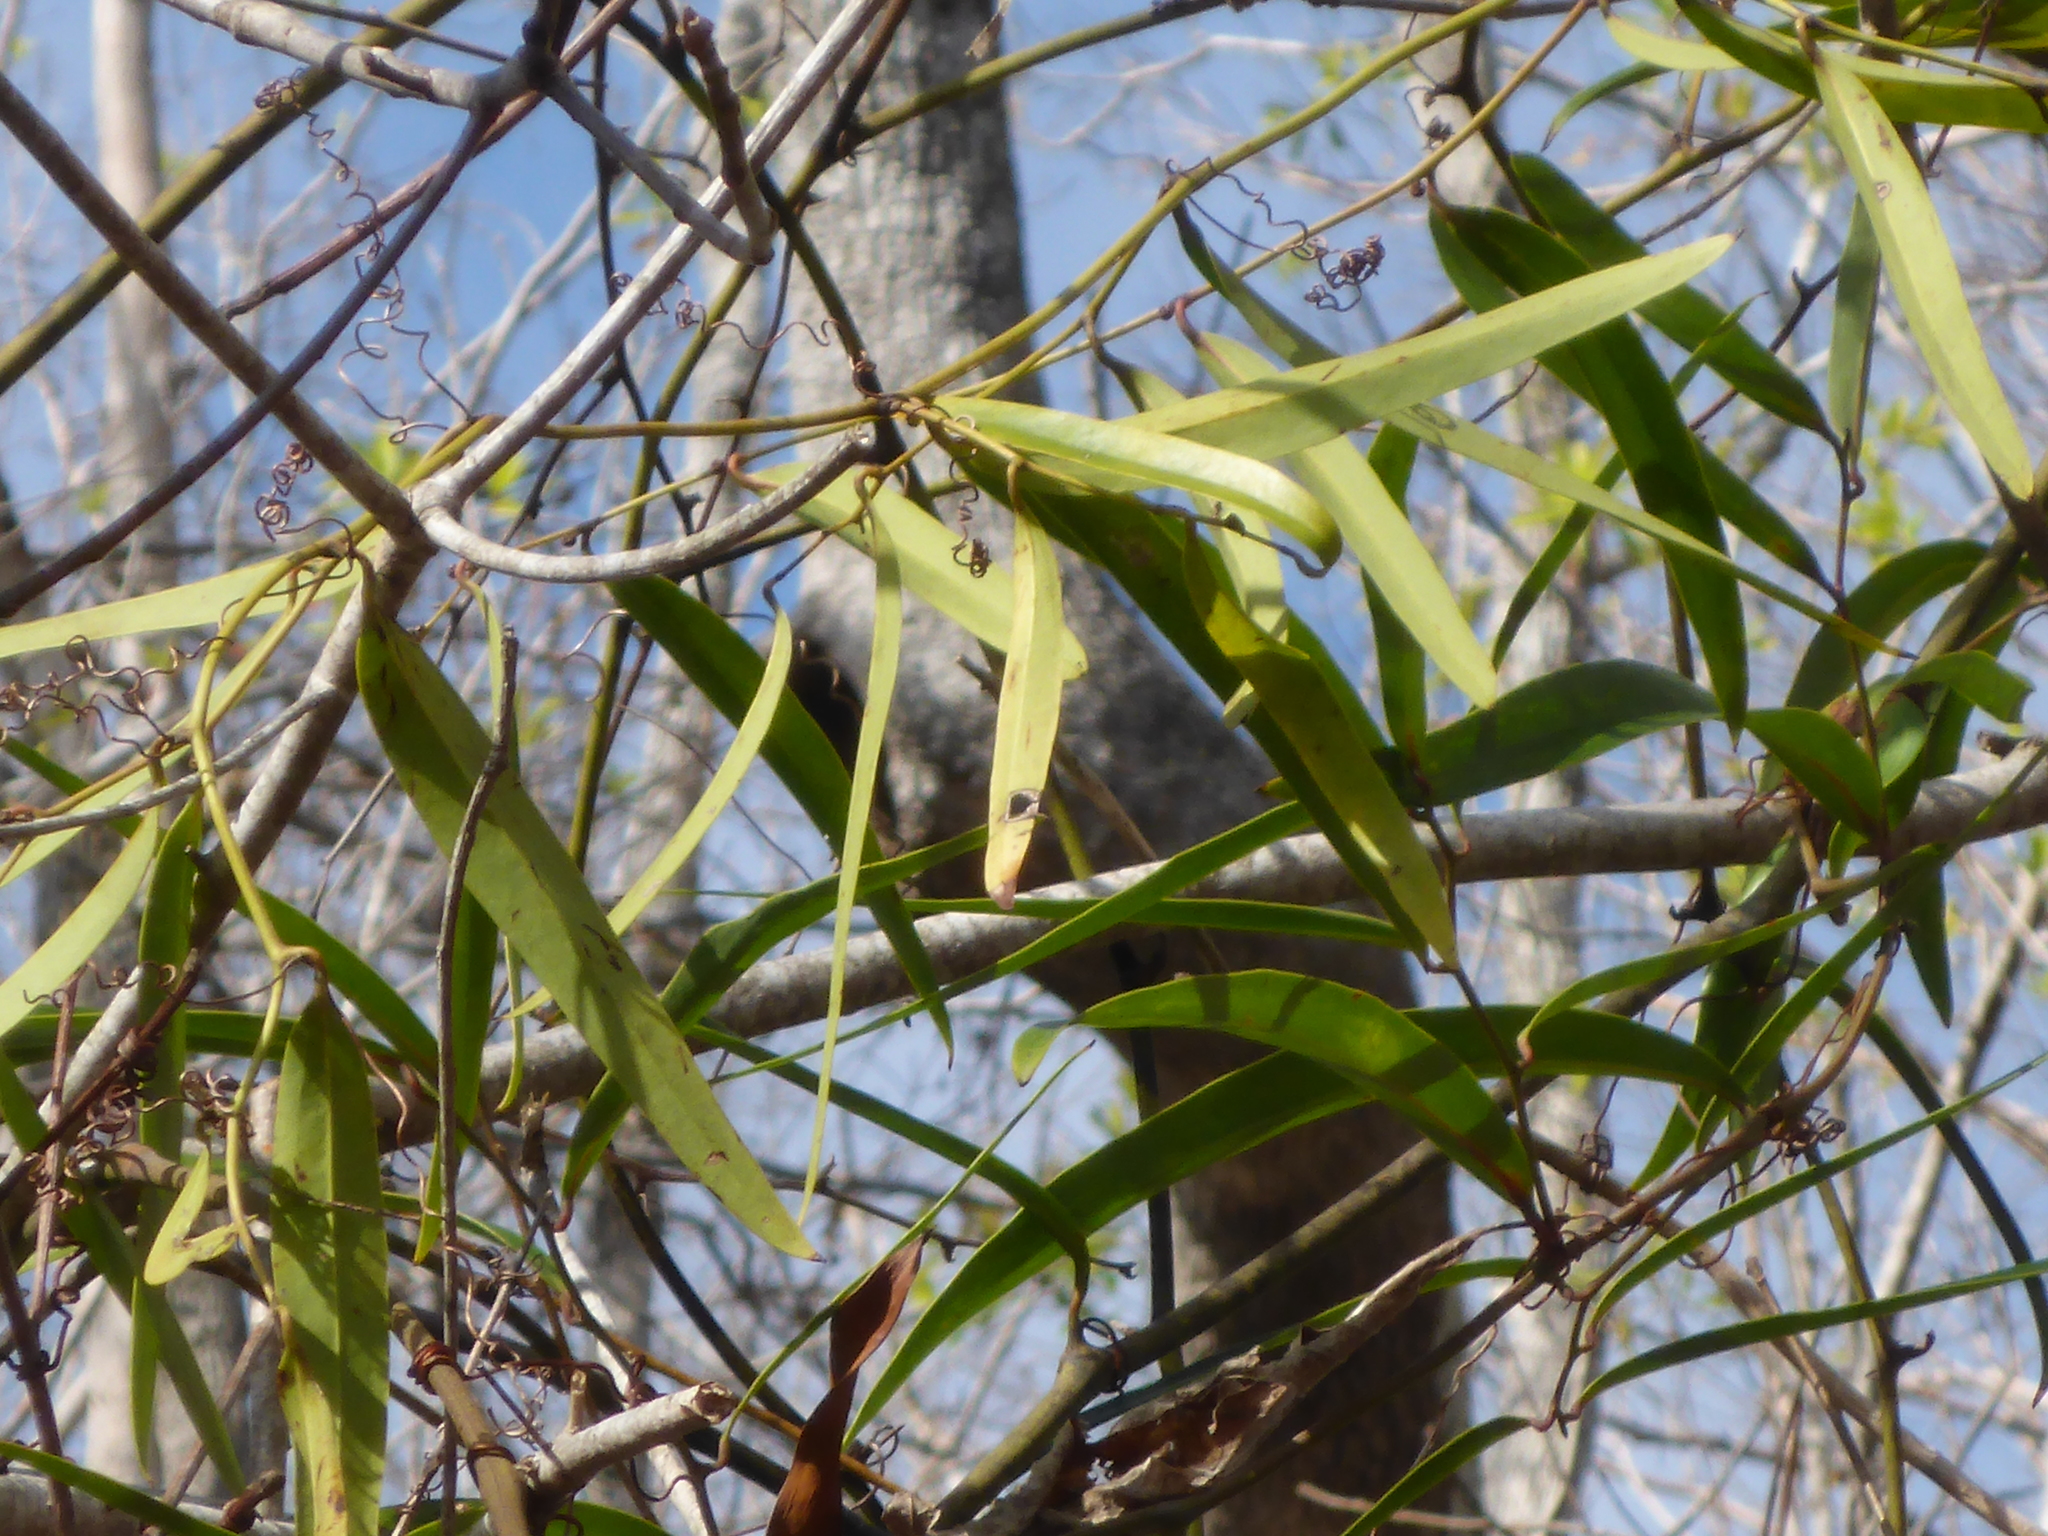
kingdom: Plantae
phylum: Tracheophyta
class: Liliopsida
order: Liliales
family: Smilacaceae
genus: Smilax
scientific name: Smilax laurifolia
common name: Bamboovine
